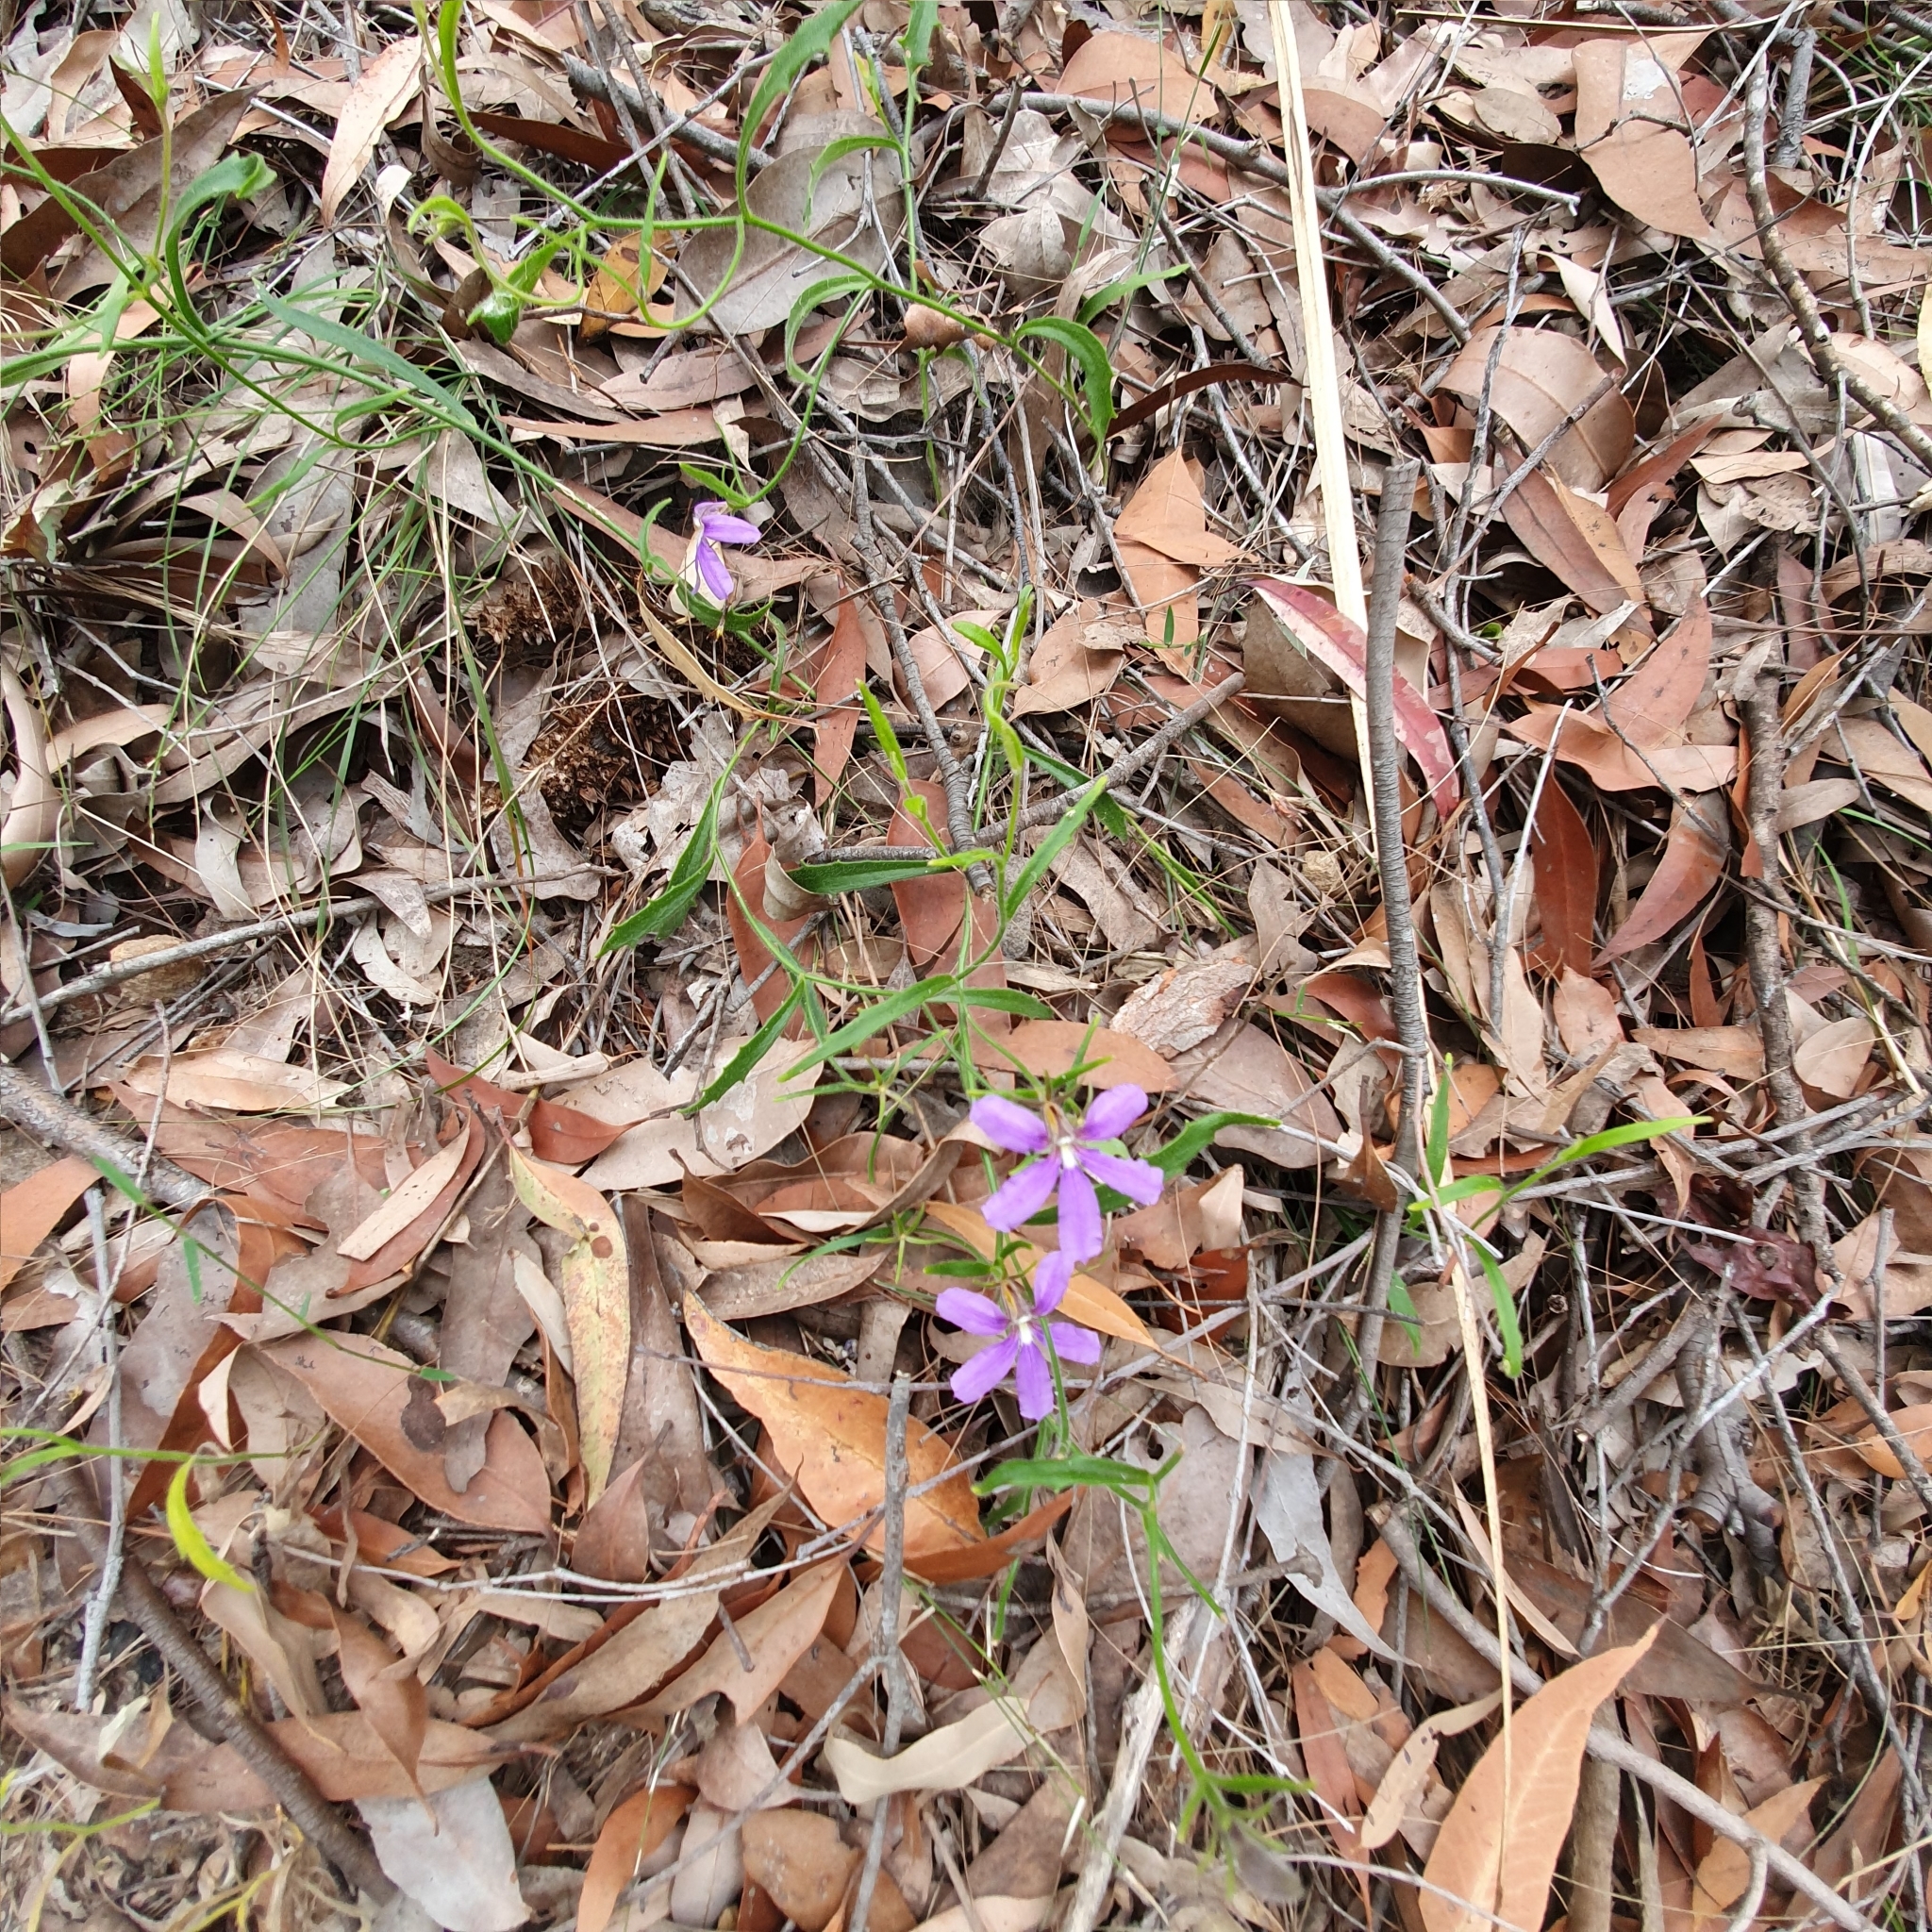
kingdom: Plantae
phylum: Tracheophyta
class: Magnoliopsida
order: Asterales
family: Goodeniaceae
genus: Scaevola
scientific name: Scaevola ramosissima
